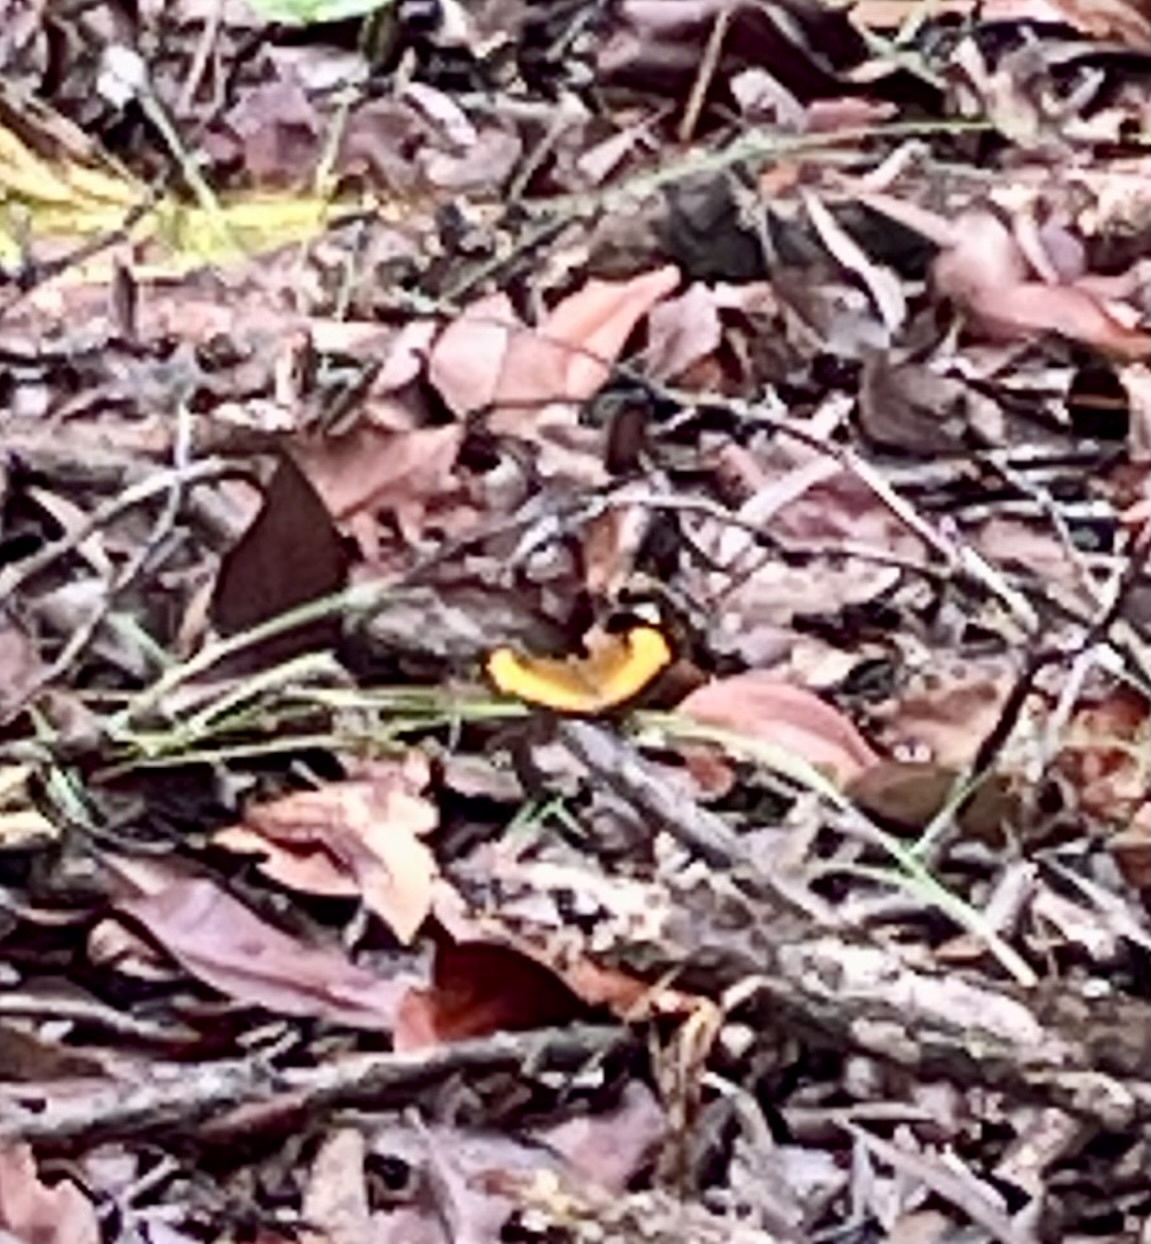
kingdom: Animalia
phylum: Arthropoda
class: Insecta
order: Lepidoptera
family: Nymphalidae
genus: Cupha
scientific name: Cupha prosope
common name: Bordered rustic
